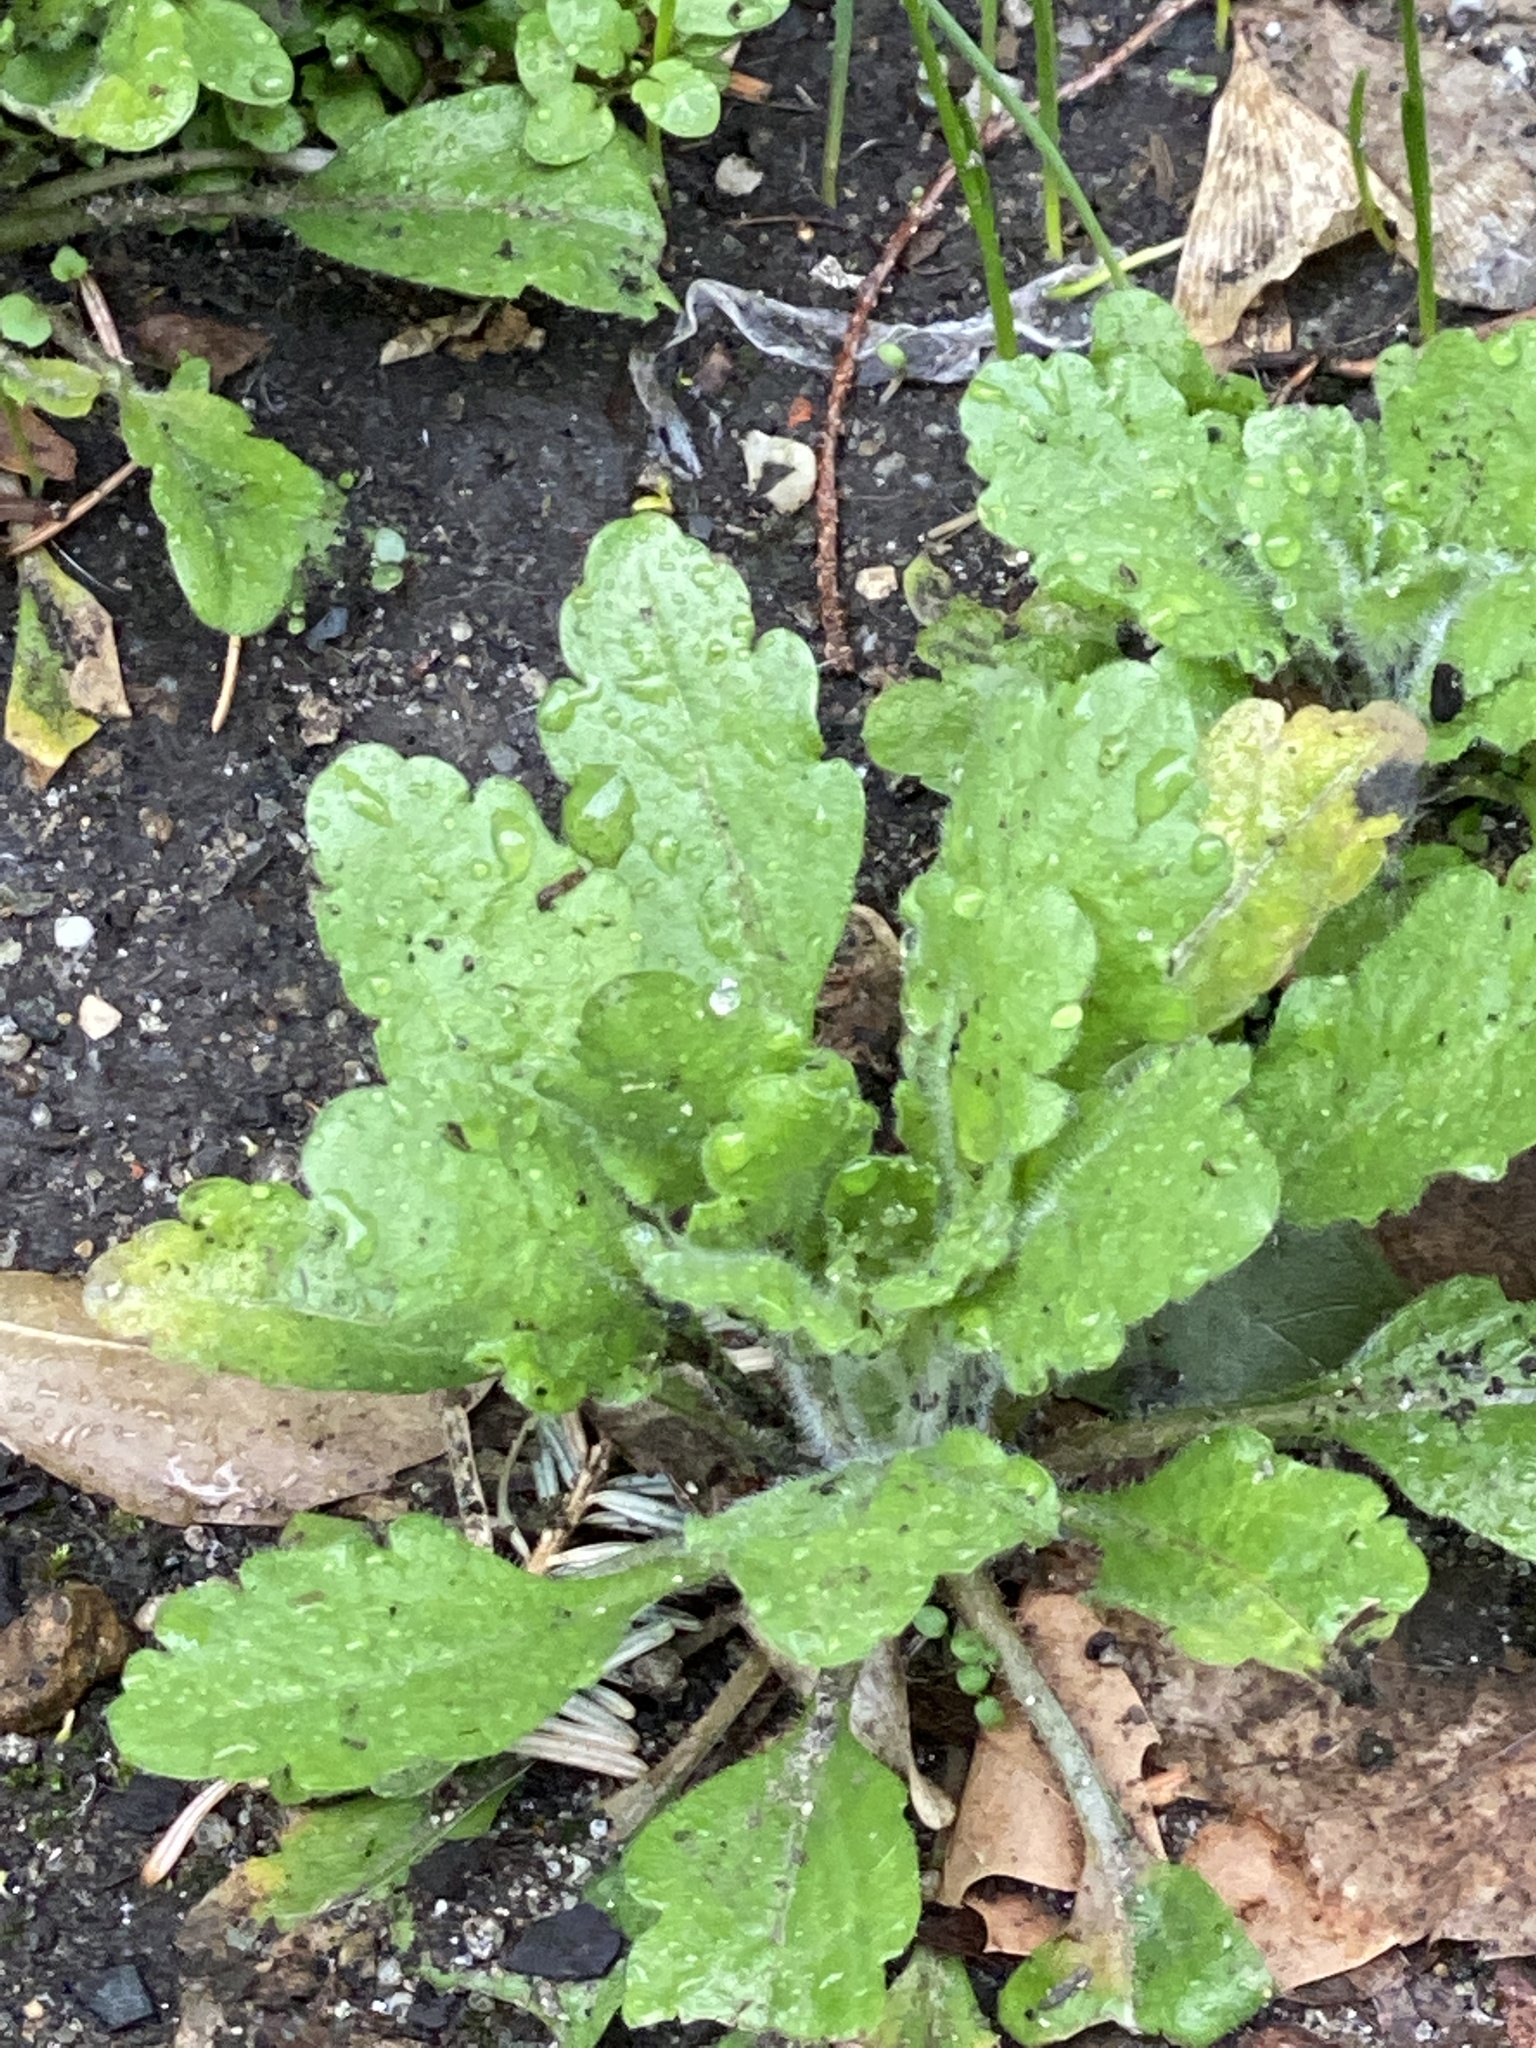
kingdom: Plantae
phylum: Tracheophyta
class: Magnoliopsida
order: Asterales
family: Asteraceae
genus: Erigeron
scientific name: Erigeron canadensis
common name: Canadian fleabane
